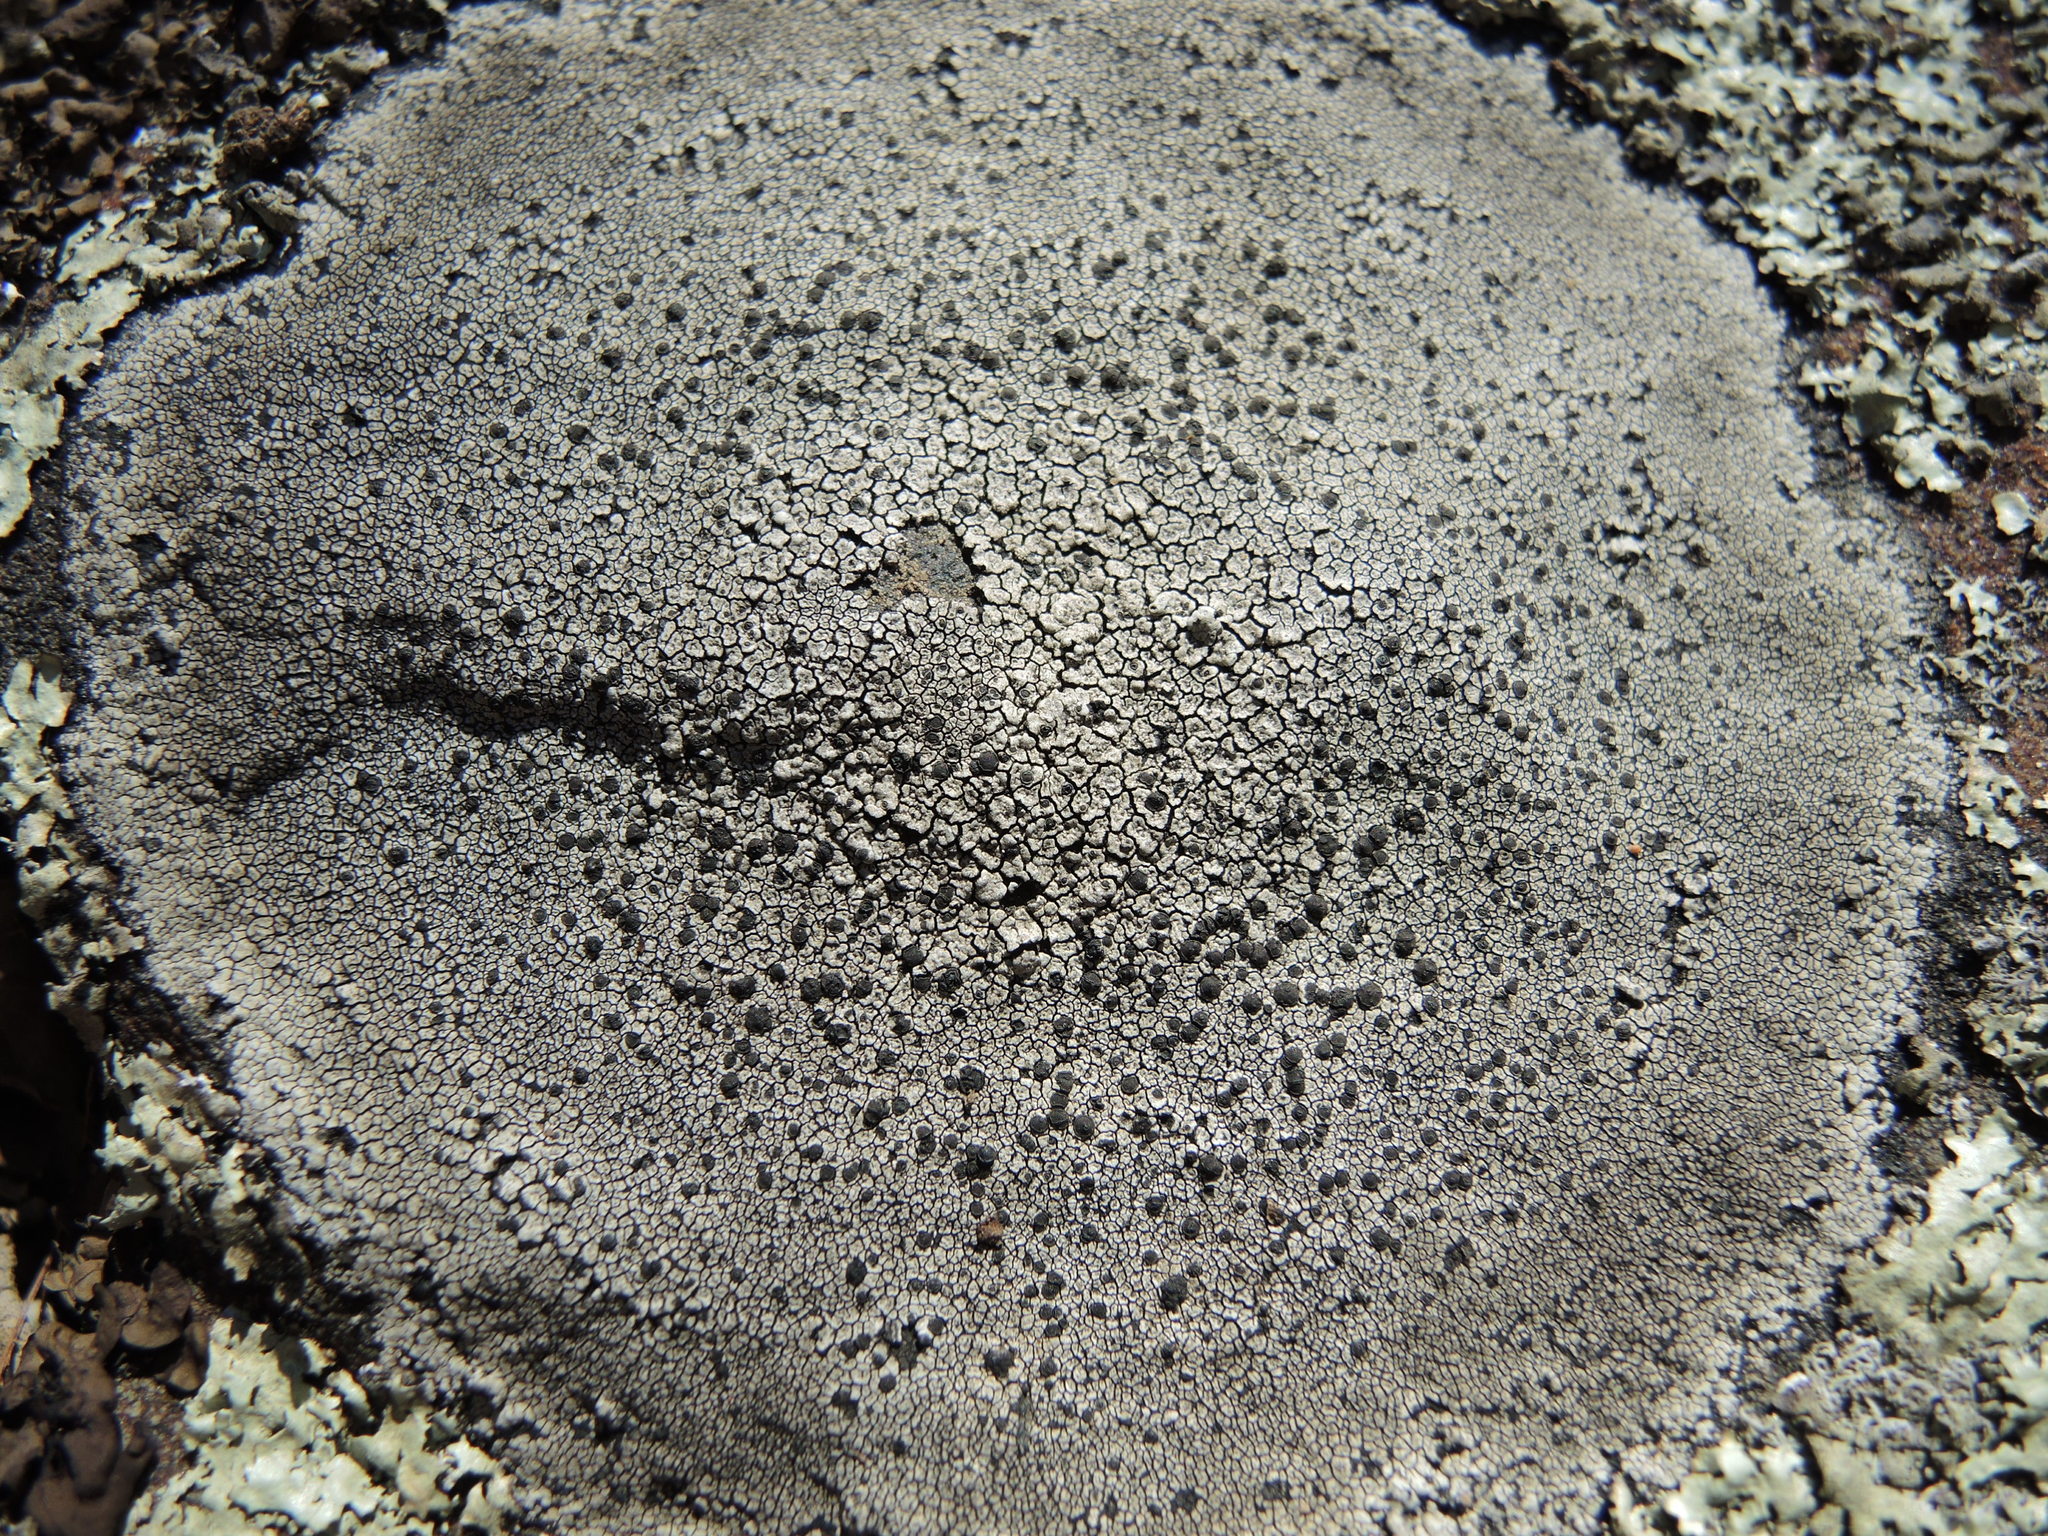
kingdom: Fungi
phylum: Ascomycota
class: Lecanoromycetes
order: Caliciales
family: Caliciaceae
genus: Buellia
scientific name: Buellia spuria
